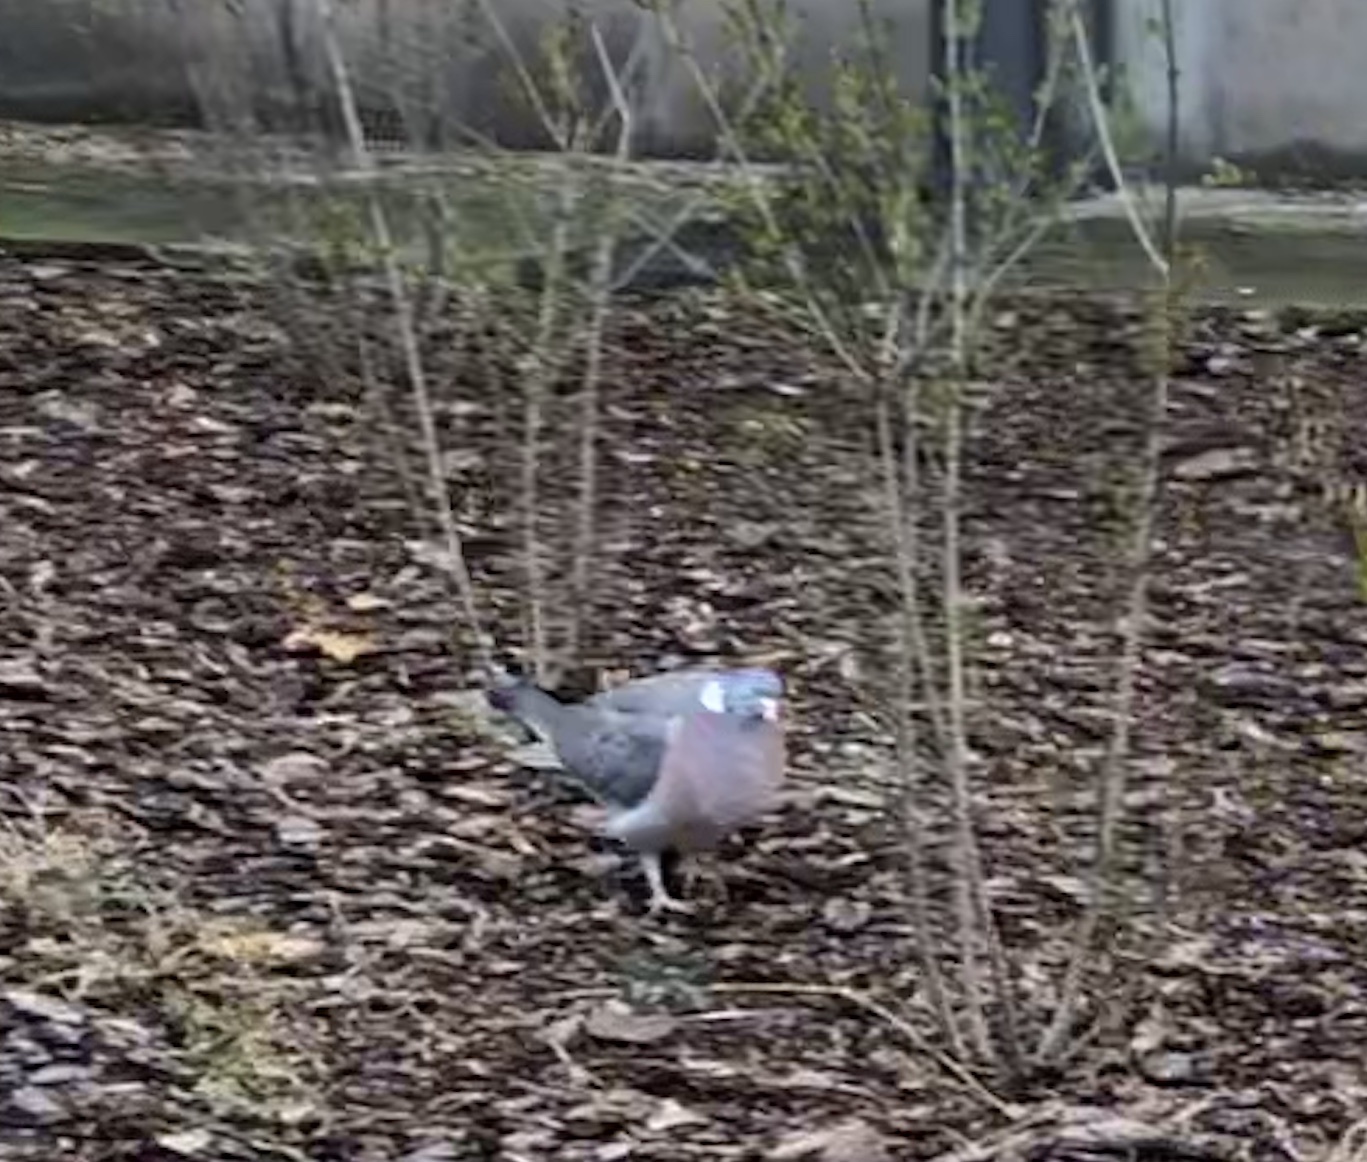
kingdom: Animalia
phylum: Chordata
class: Aves
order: Columbiformes
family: Columbidae
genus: Columba
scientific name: Columba palumbus
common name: Common wood pigeon
